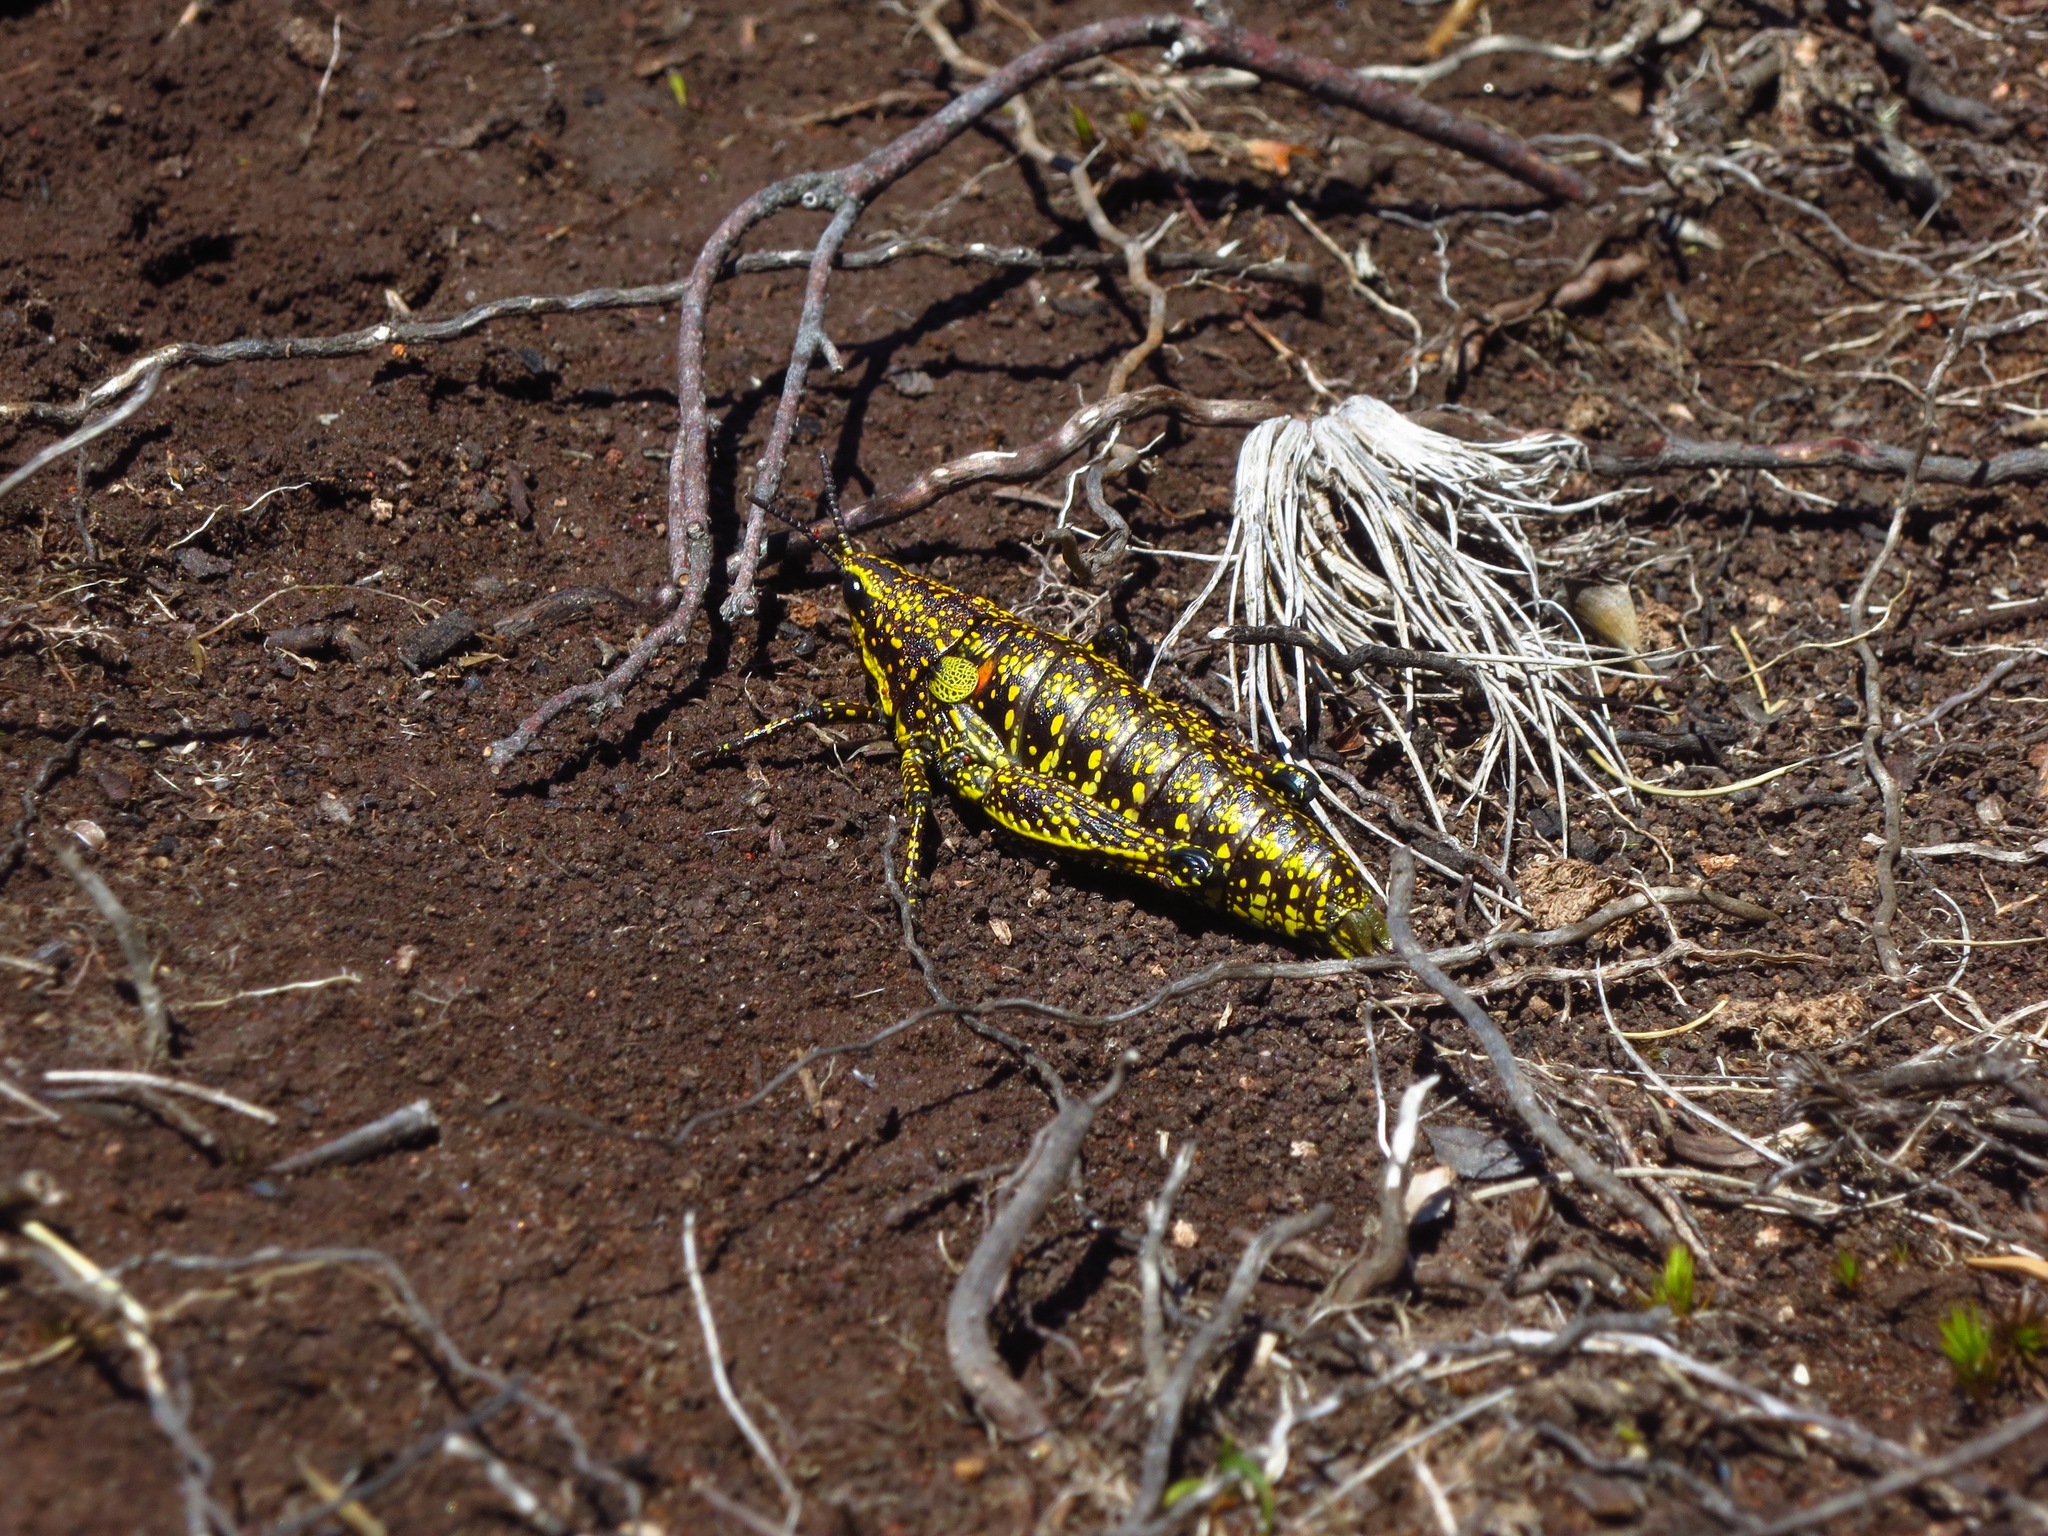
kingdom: Animalia
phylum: Arthropoda
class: Insecta
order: Orthoptera
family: Pyrgomorphidae
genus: Monistria
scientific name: Monistria concinna
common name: Southern pyrgomorph
